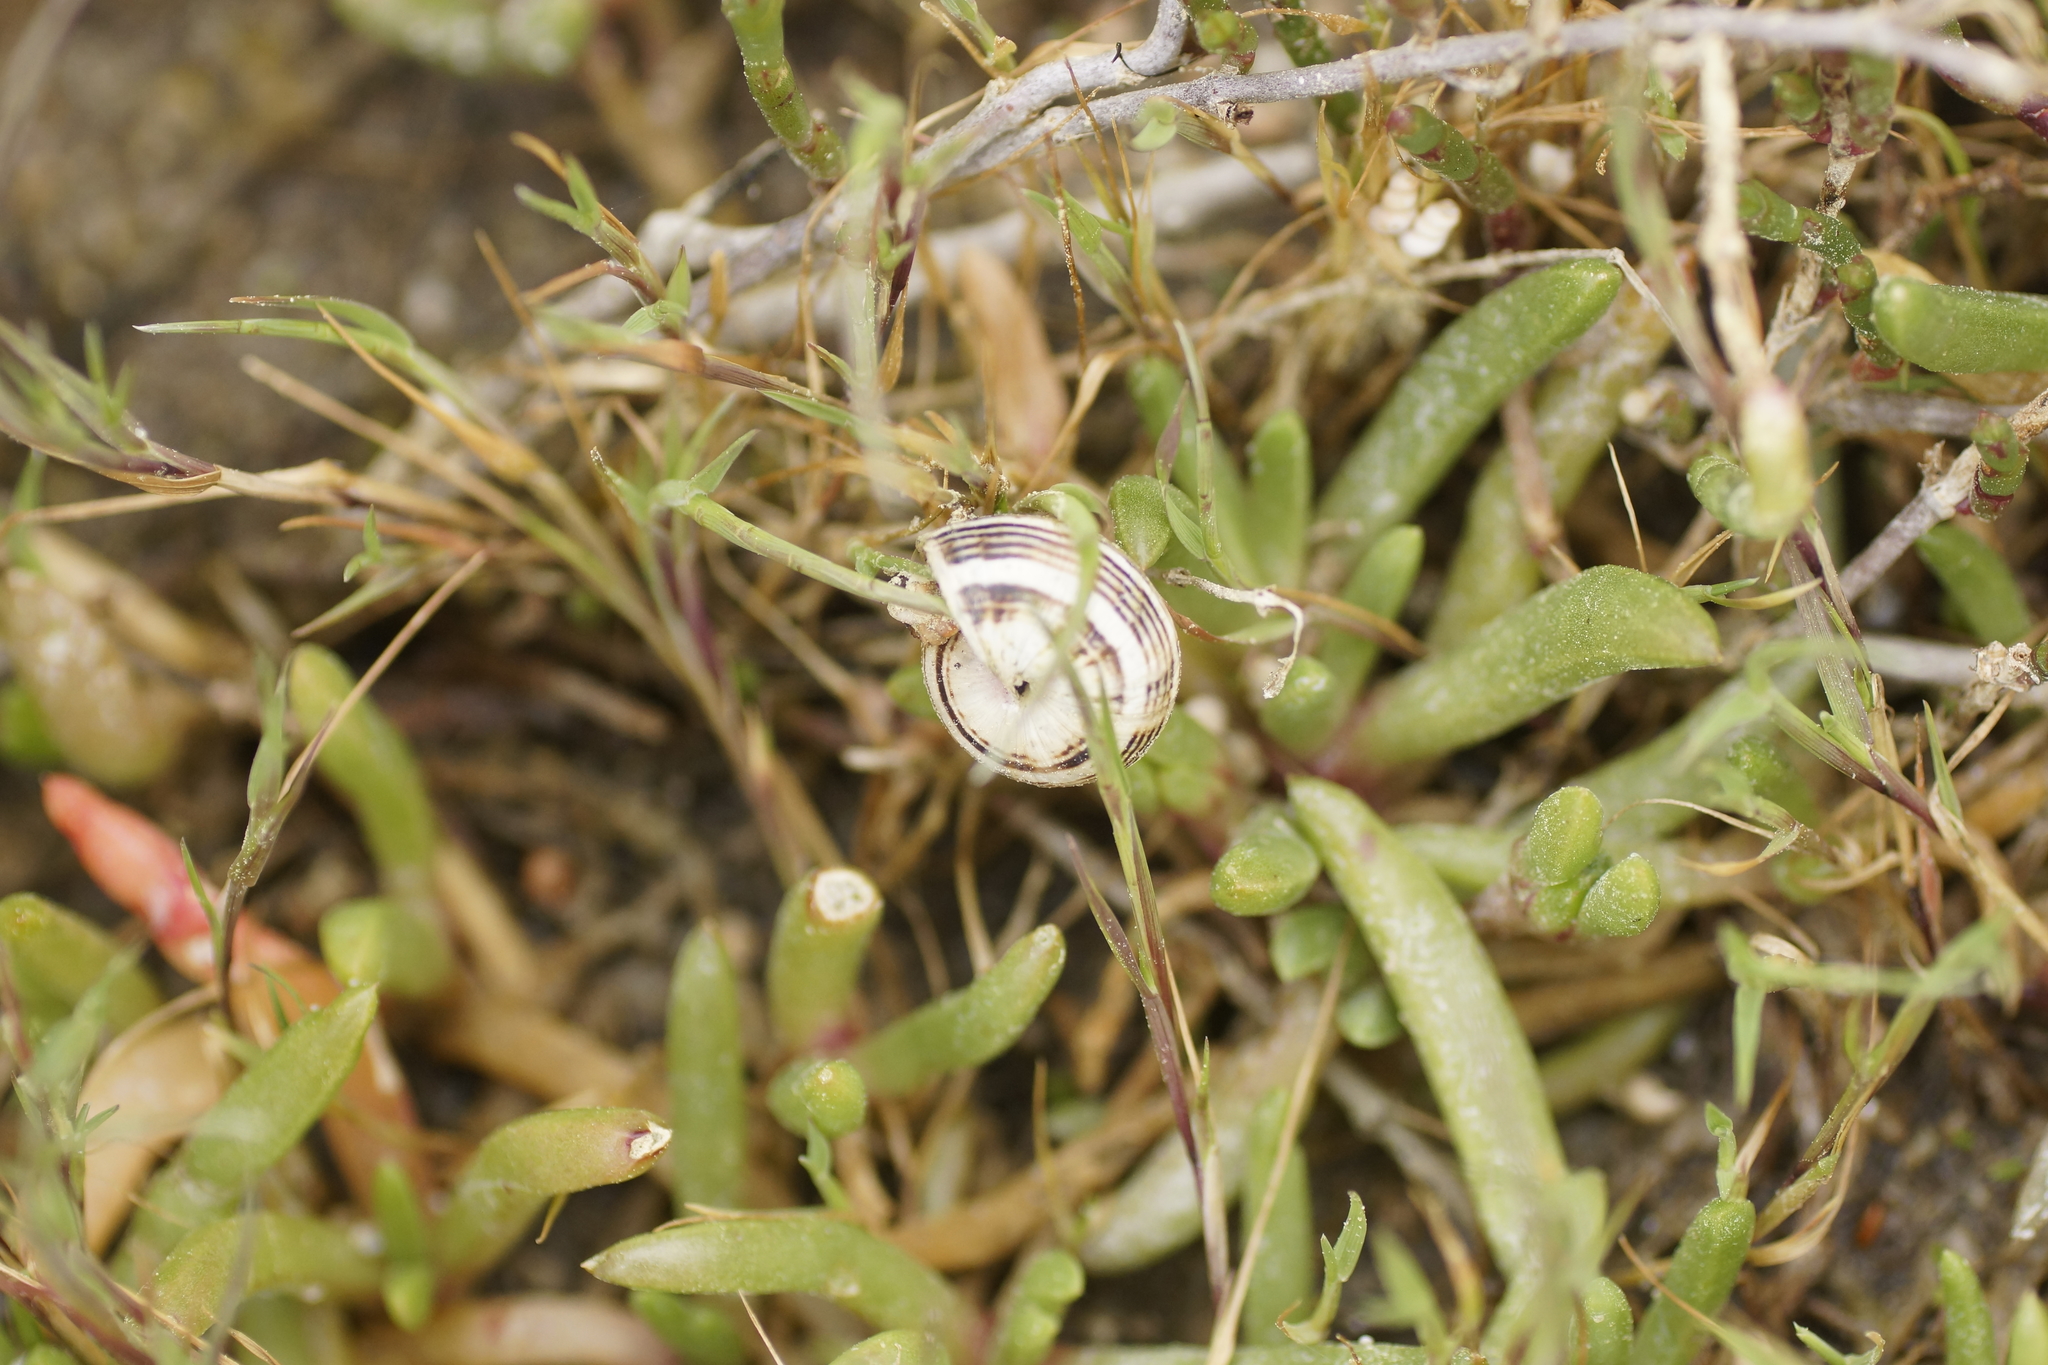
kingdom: Animalia
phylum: Mollusca
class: Gastropoda
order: Stylommatophora
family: Helicidae
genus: Theba
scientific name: Theba pisana
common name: White snail
